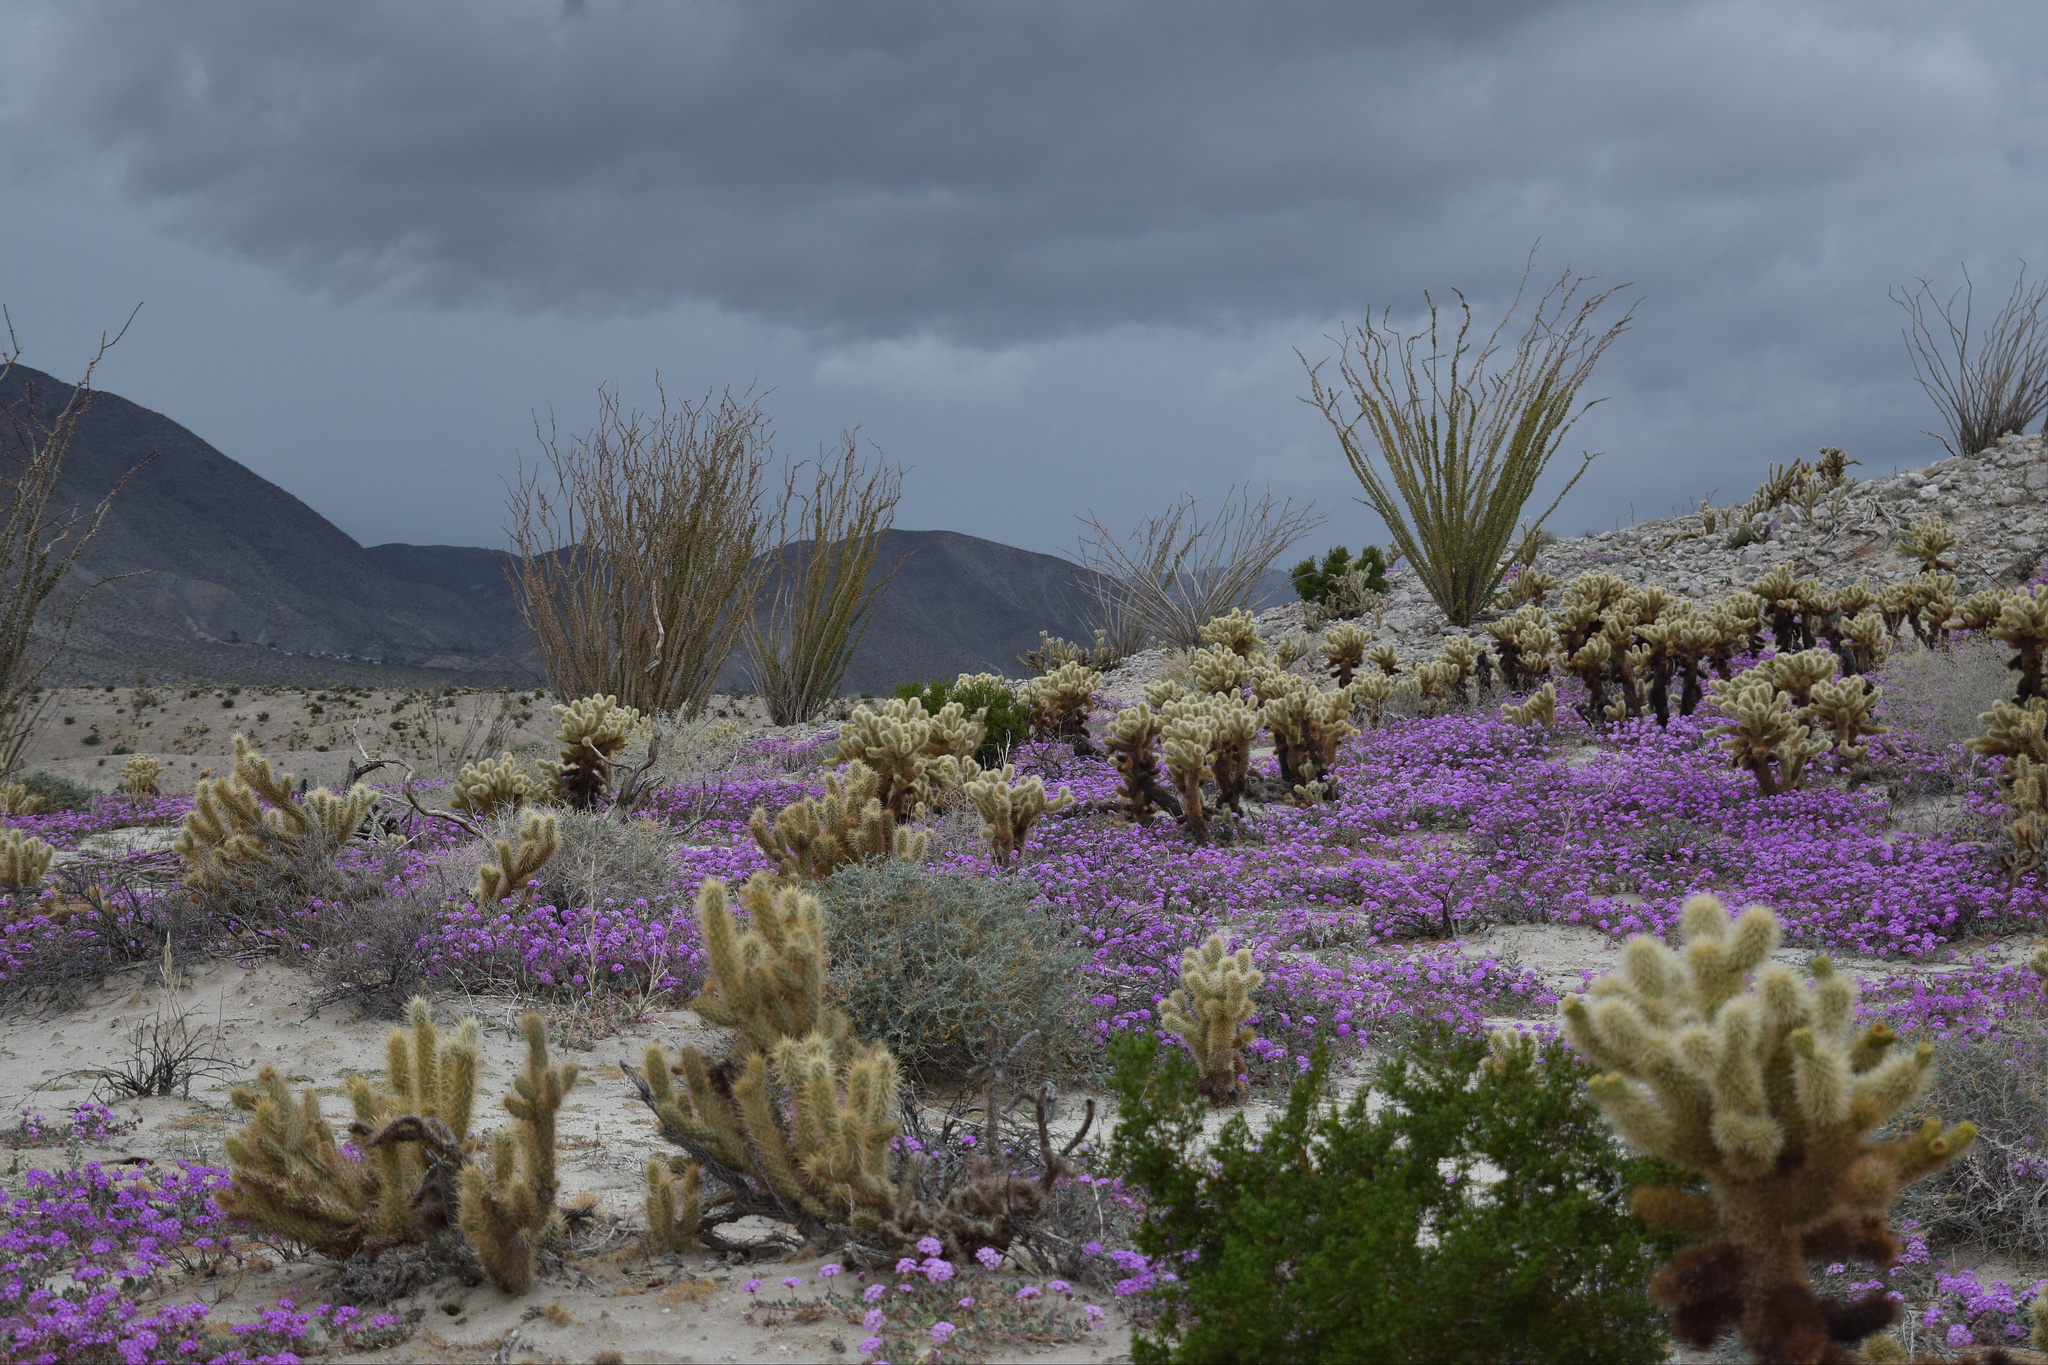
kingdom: Plantae
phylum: Tracheophyta
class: Magnoliopsida
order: Caryophyllales
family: Nyctaginaceae
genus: Abronia
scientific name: Abronia villosa
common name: Desert sand-verbena
